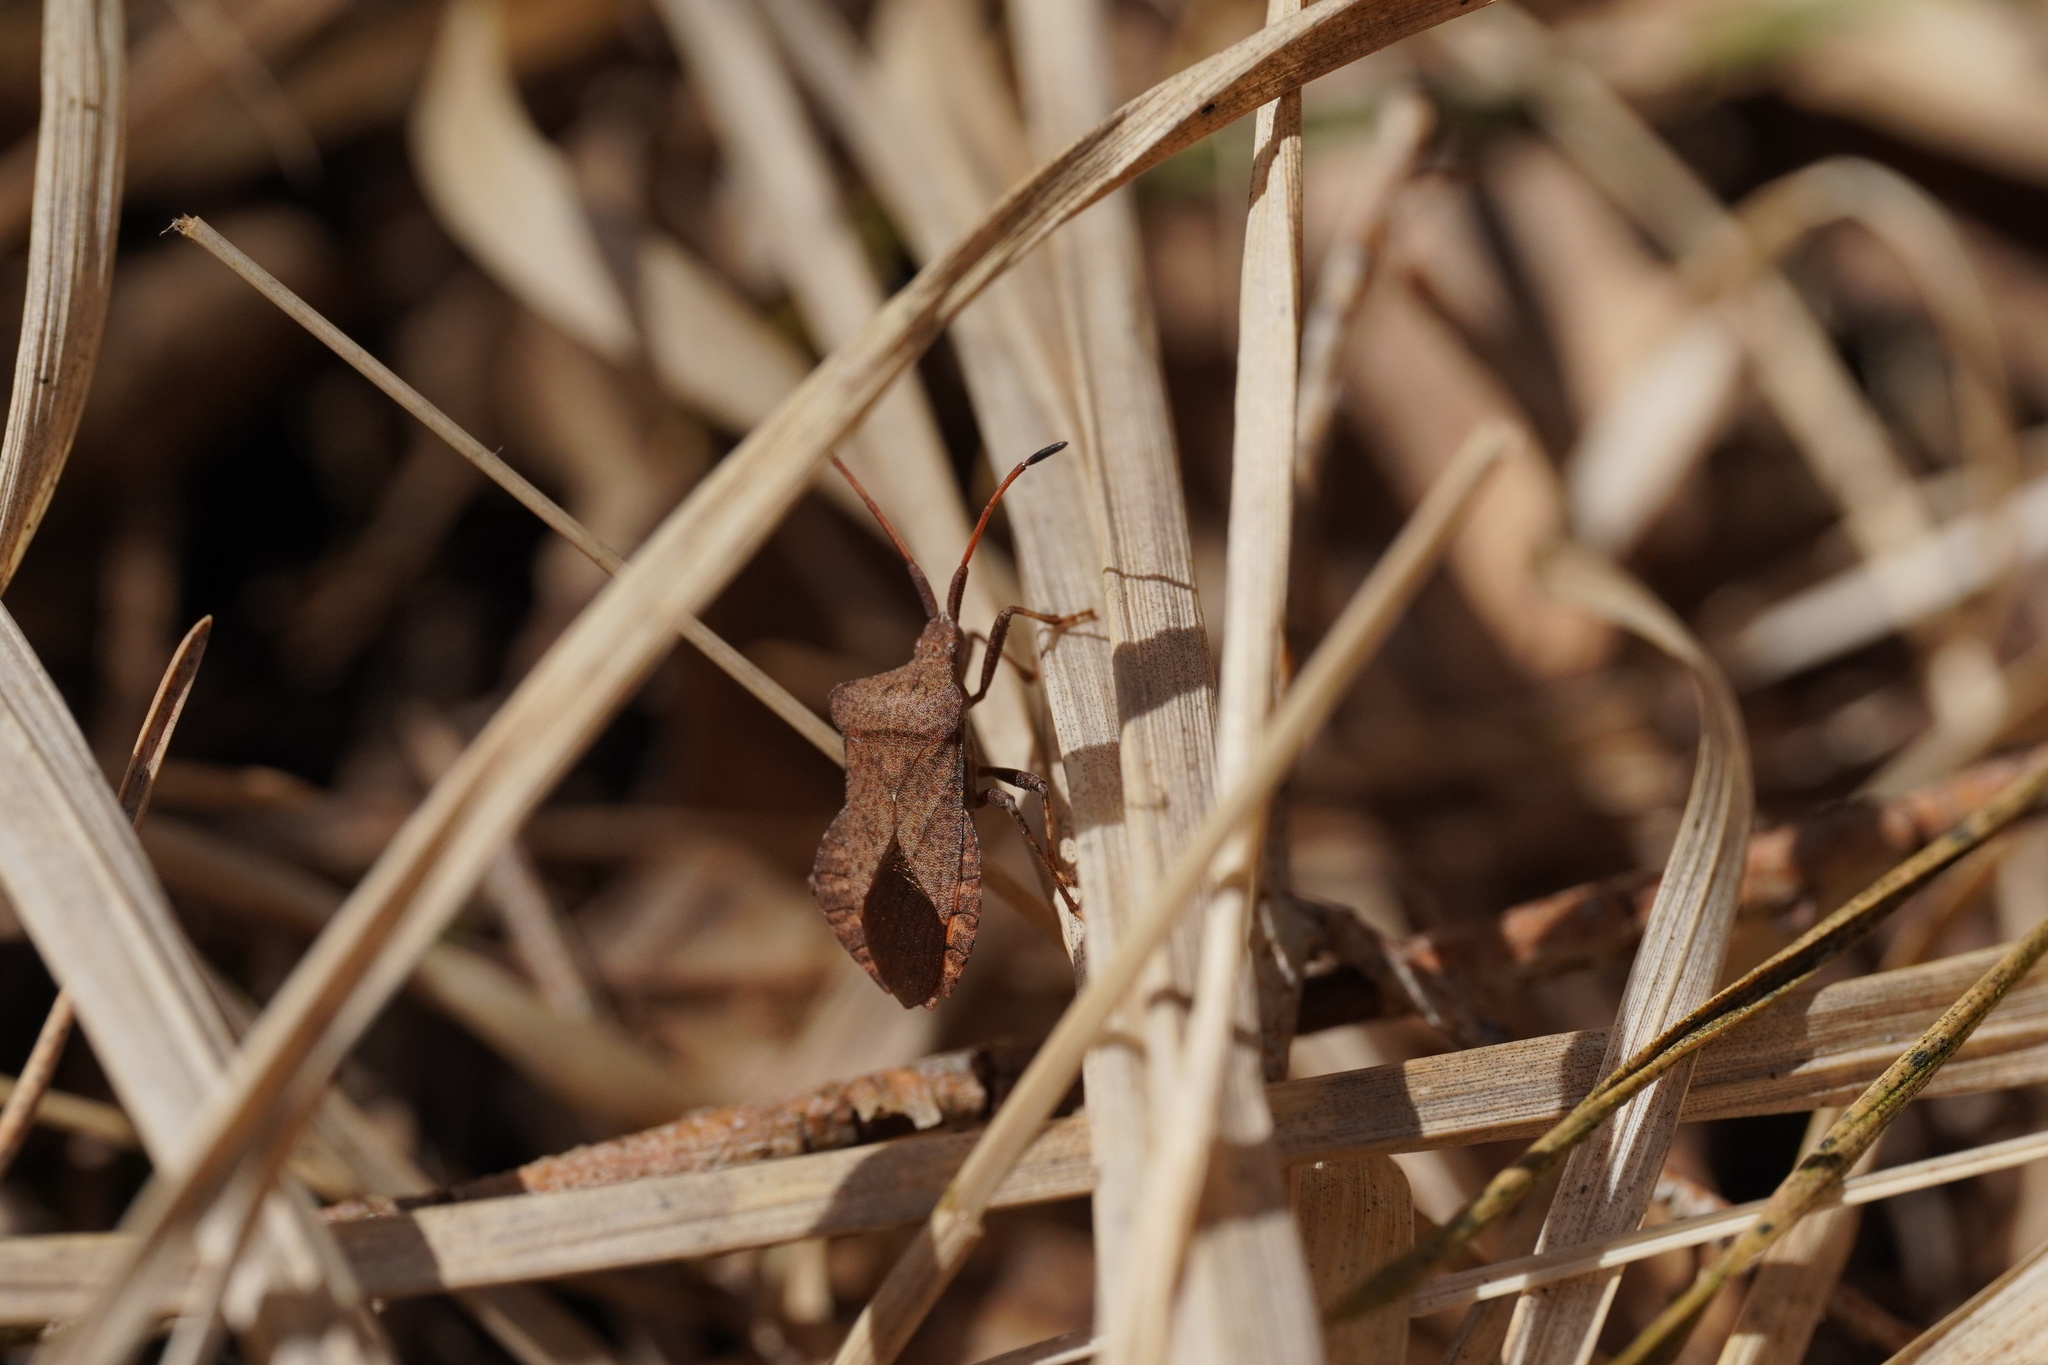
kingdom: Animalia
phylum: Arthropoda
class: Insecta
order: Hemiptera
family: Coreidae
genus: Coreus
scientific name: Coreus marginatus
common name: Dock bug
